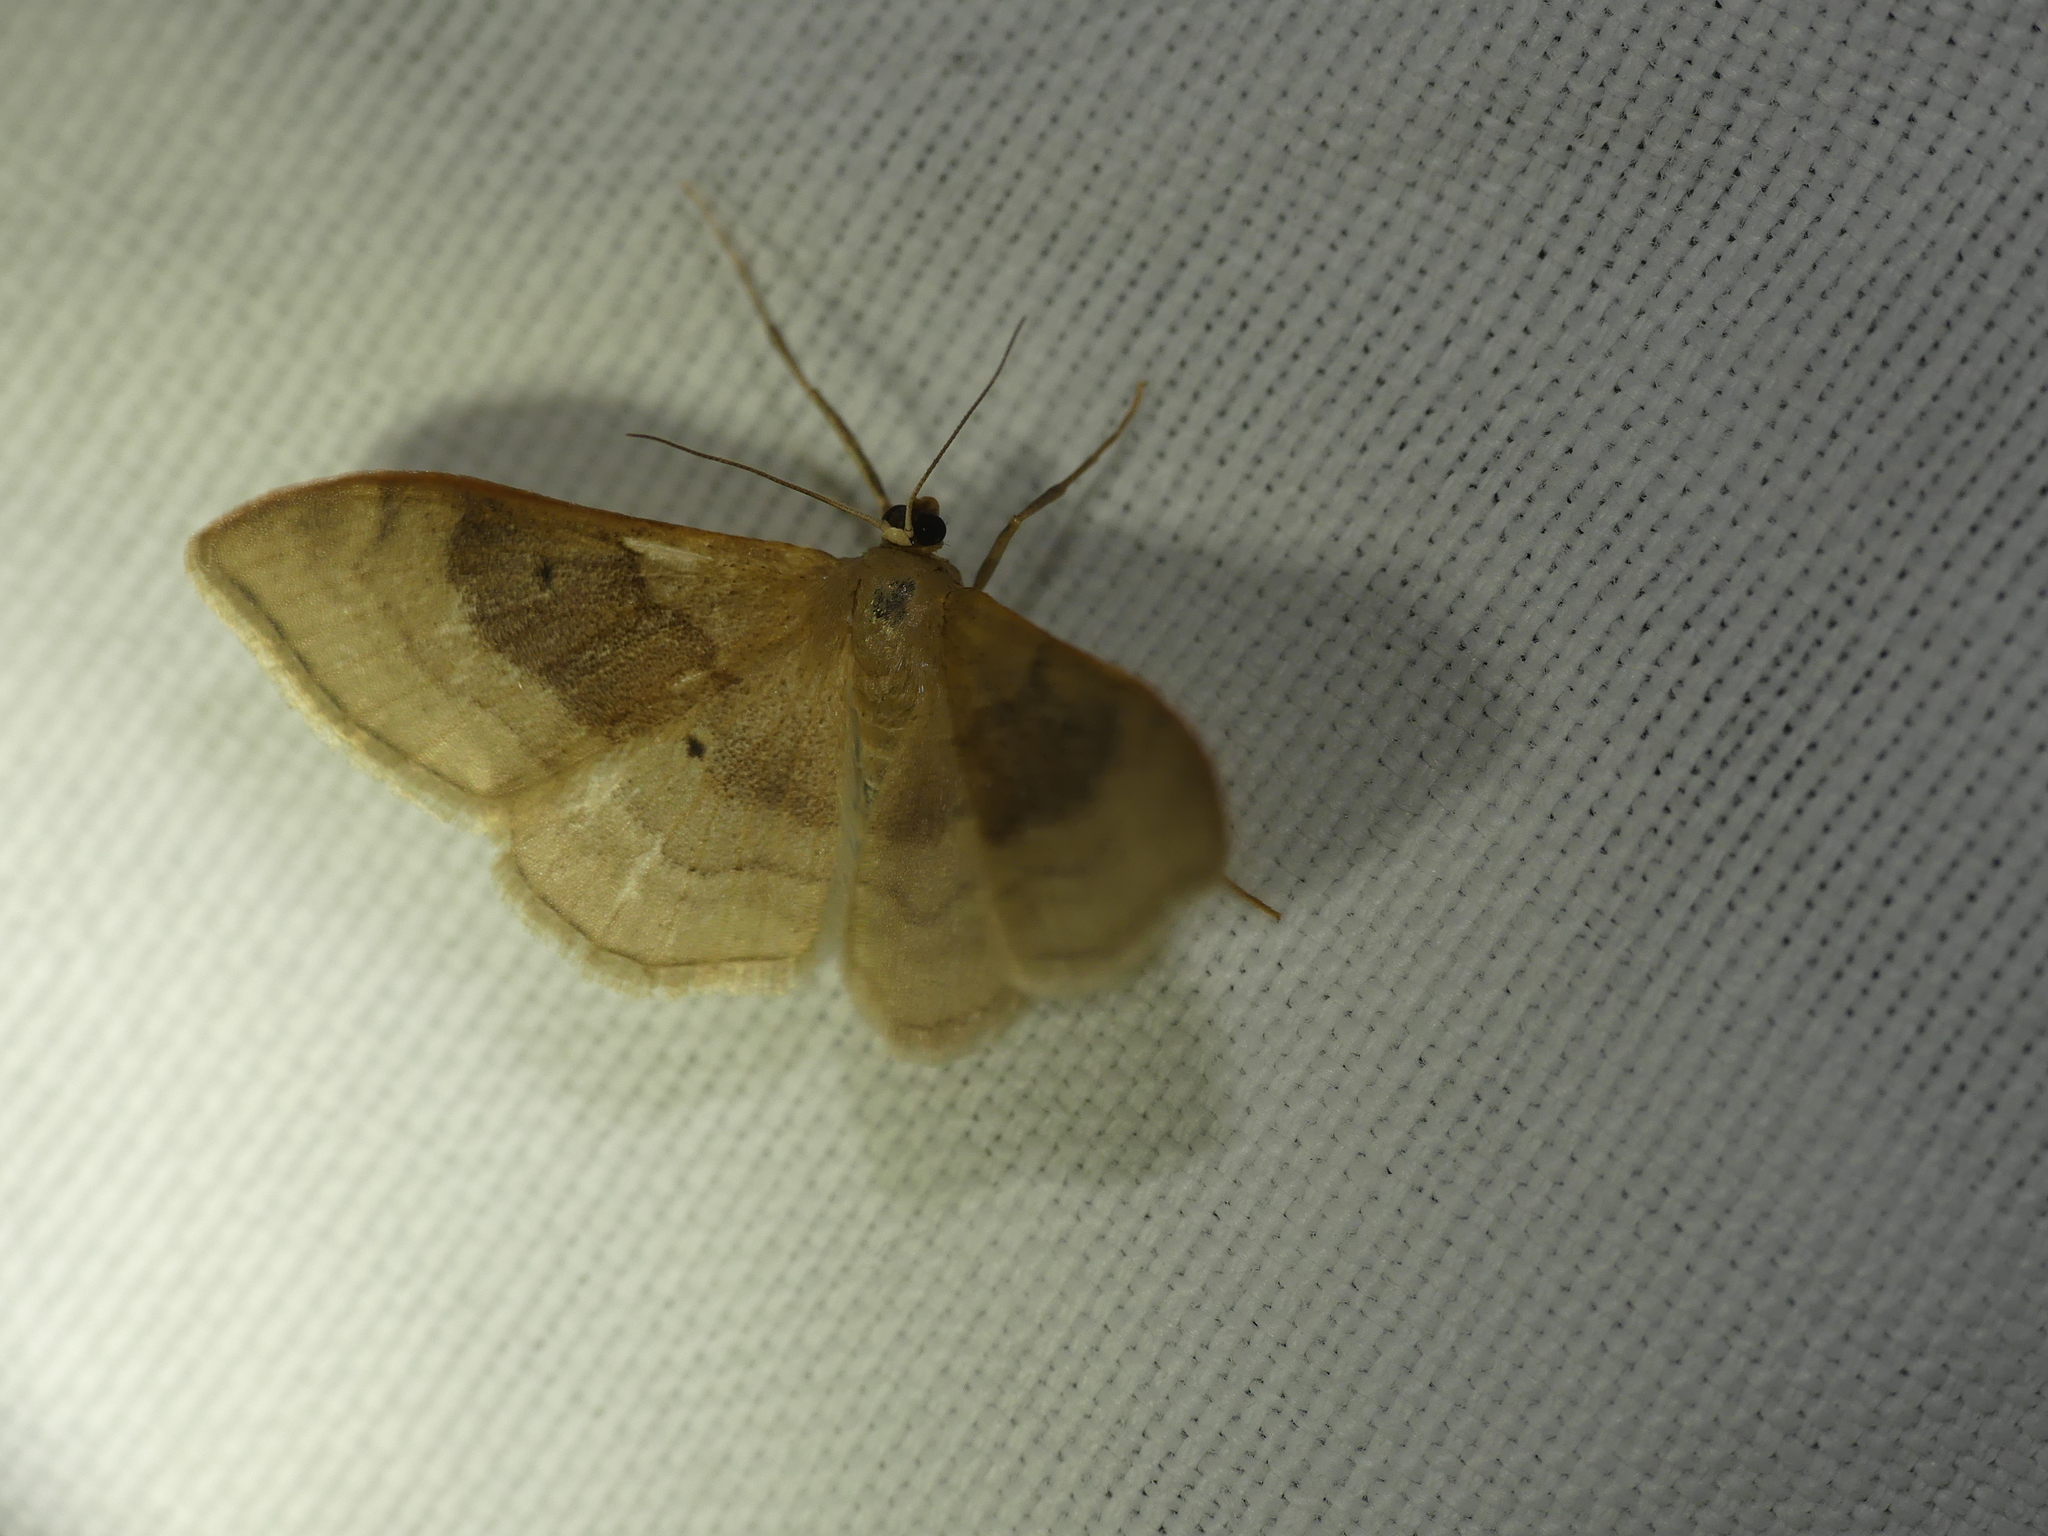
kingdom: Animalia
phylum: Arthropoda
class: Insecta
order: Lepidoptera
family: Geometridae
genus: Idaea
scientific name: Idaea degeneraria
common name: Portland ribbon wave
